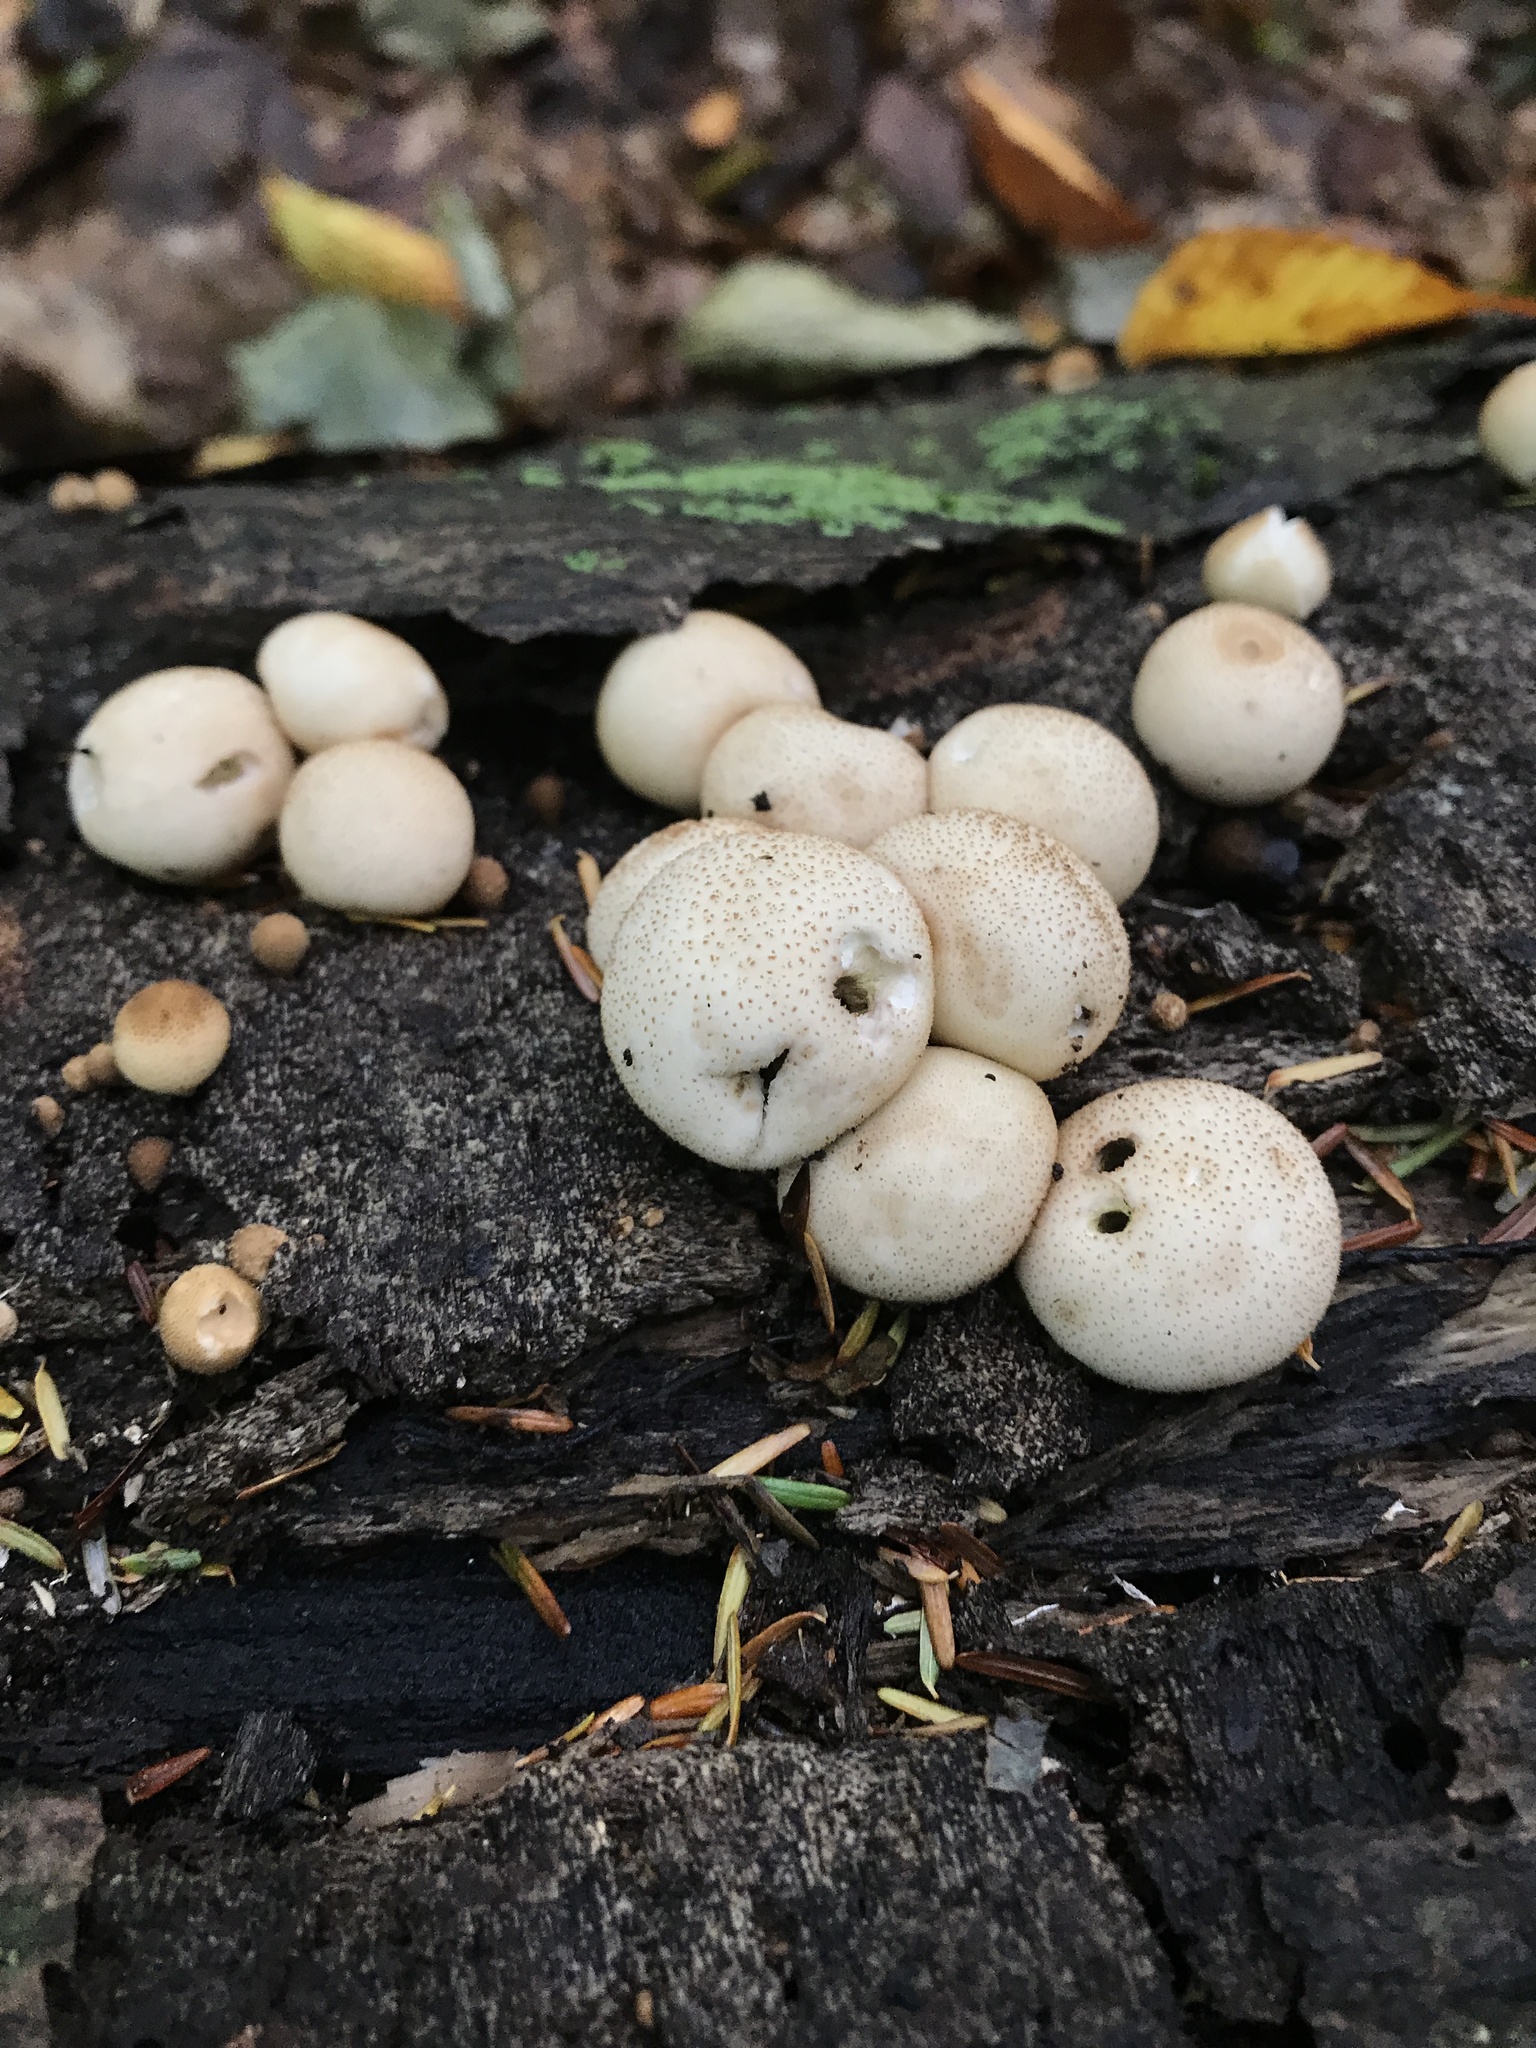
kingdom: Fungi
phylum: Basidiomycota
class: Agaricomycetes
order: Agaricales
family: Lycoperdaceae
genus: Apioperdon
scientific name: Apioperdon pyriforme
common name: Pear-shaped puffball
